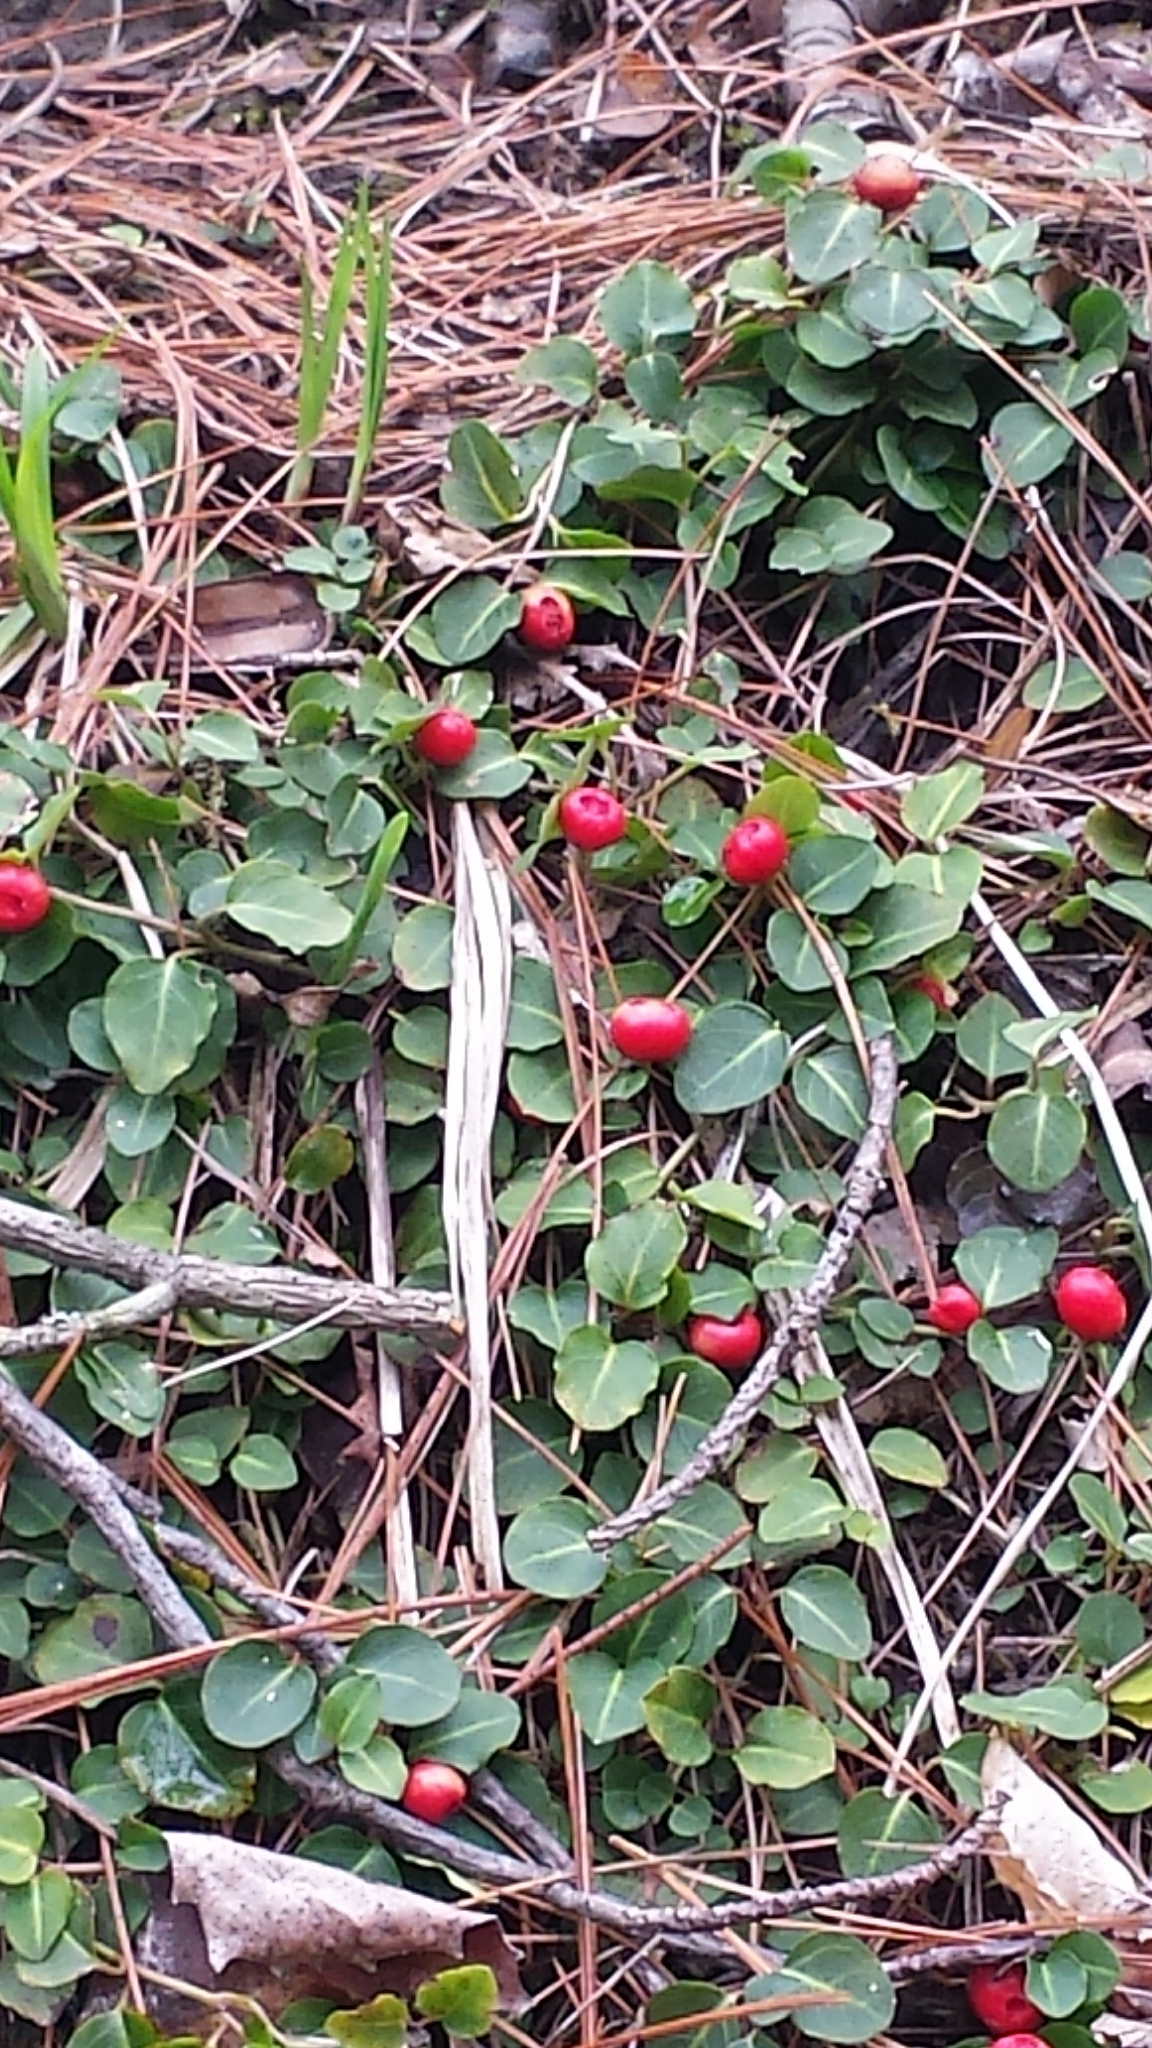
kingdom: Plantae
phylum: Tracheophyta
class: Magnoliopsida
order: Gentianales
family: Rubiaceae
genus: Mitchella
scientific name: Mitchella repens
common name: Partridge-berry
